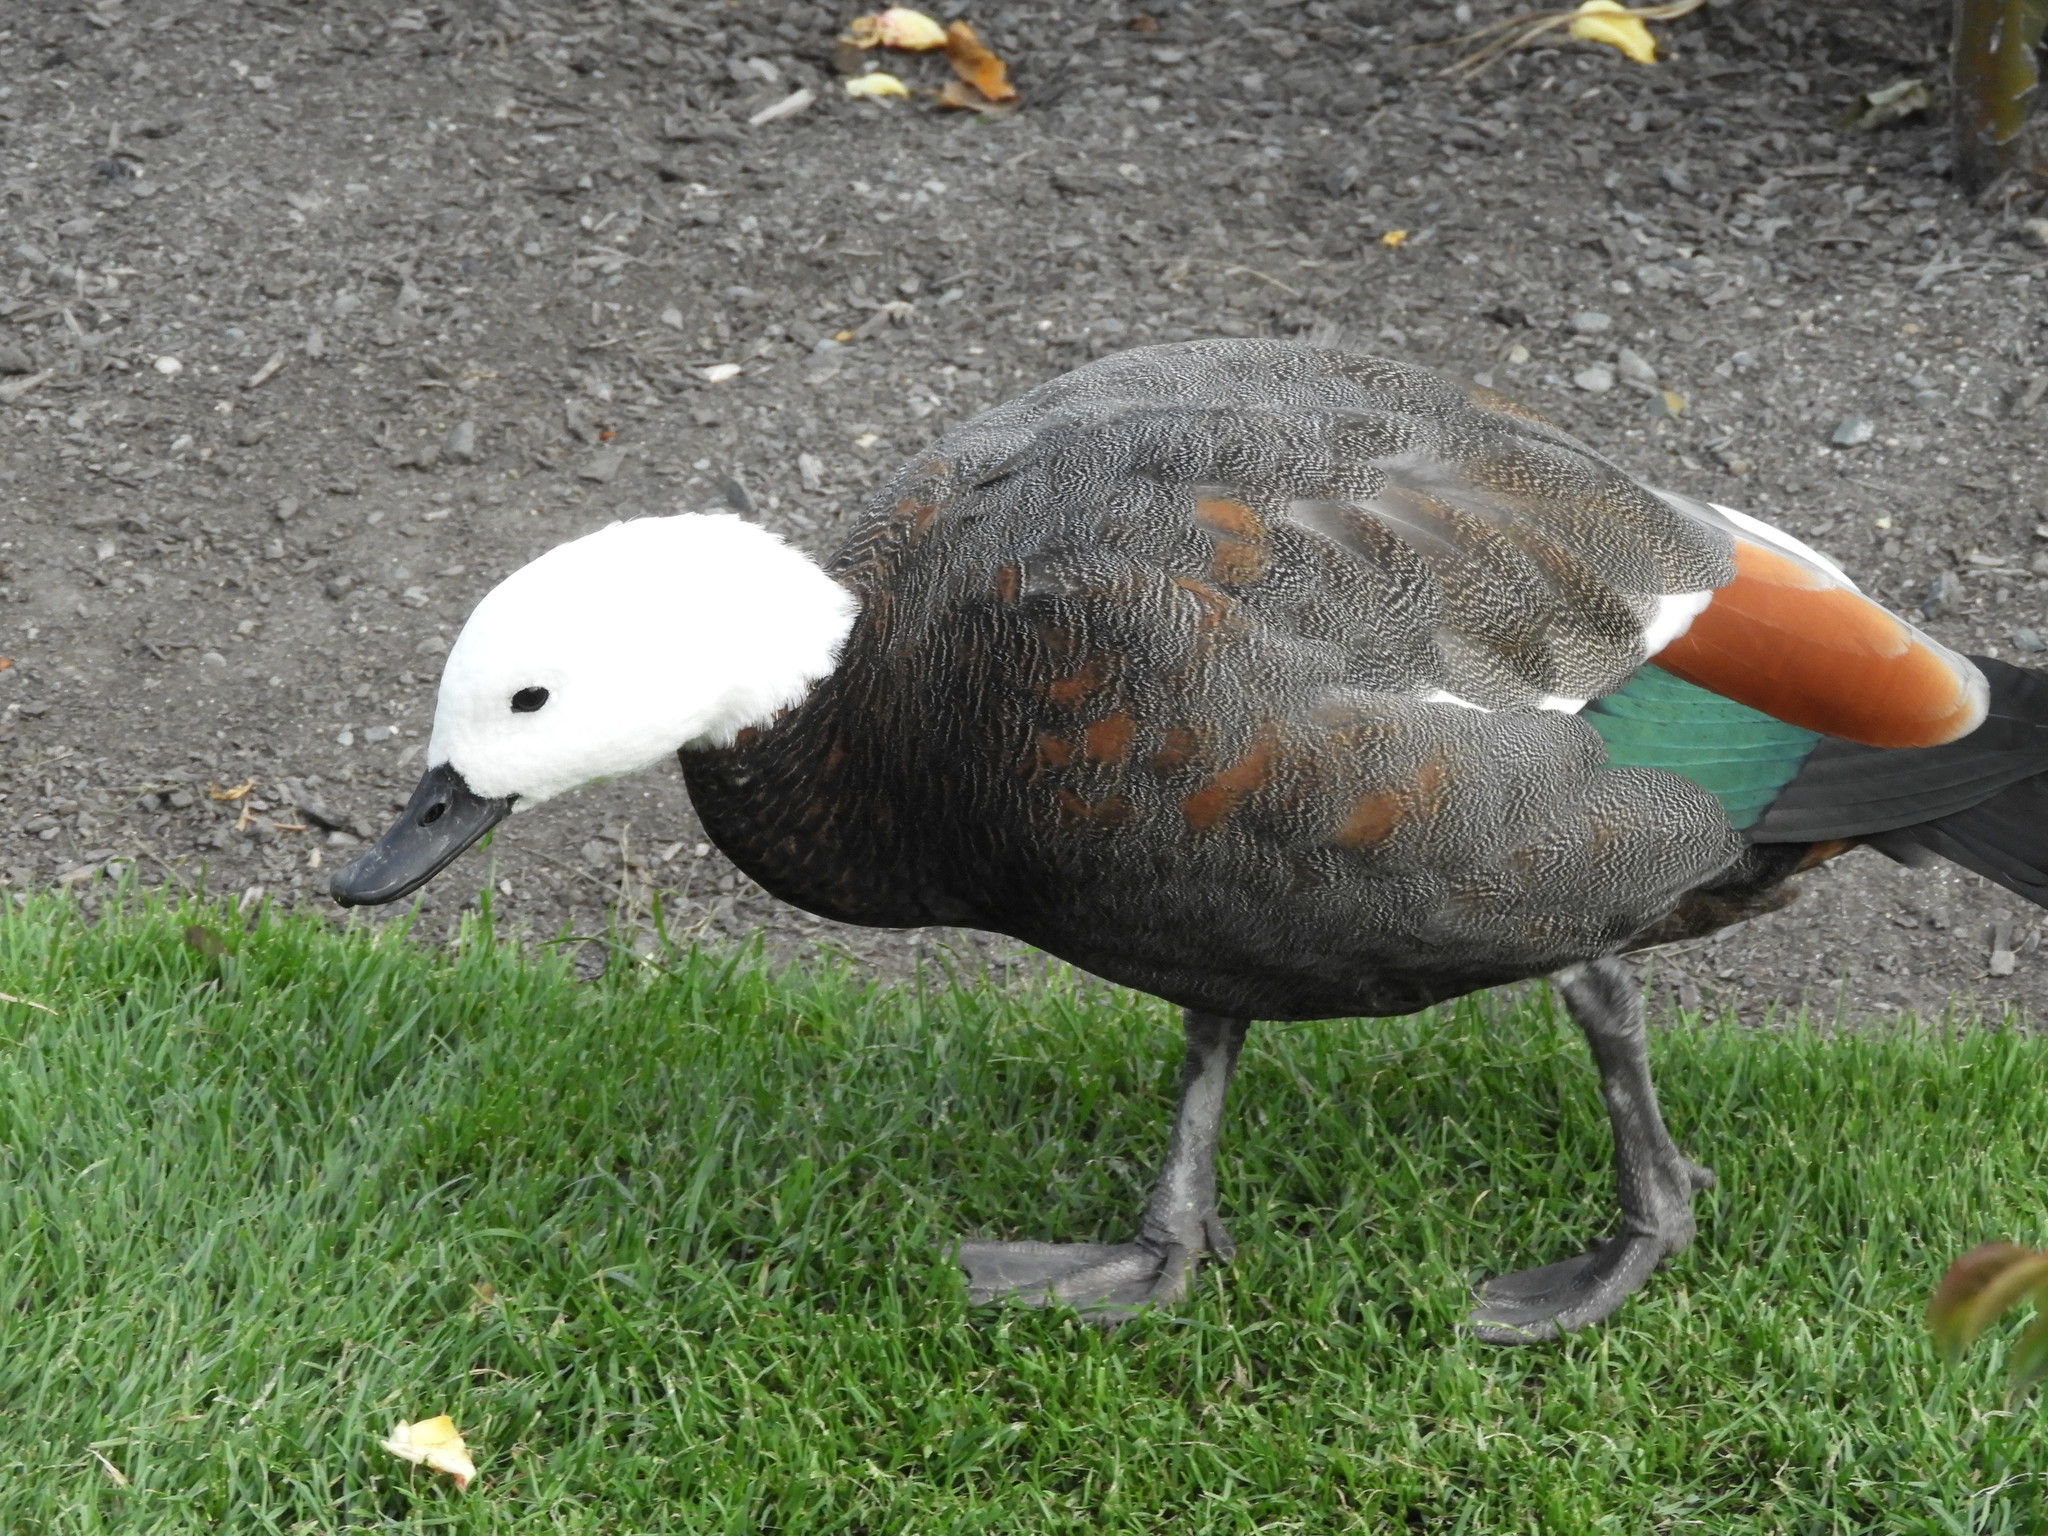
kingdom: Animalia
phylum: Chordata
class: Aves
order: Anseriformes
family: Anatidae
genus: Tadorna
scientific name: Tadorna variegata
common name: Paradise shelduck
